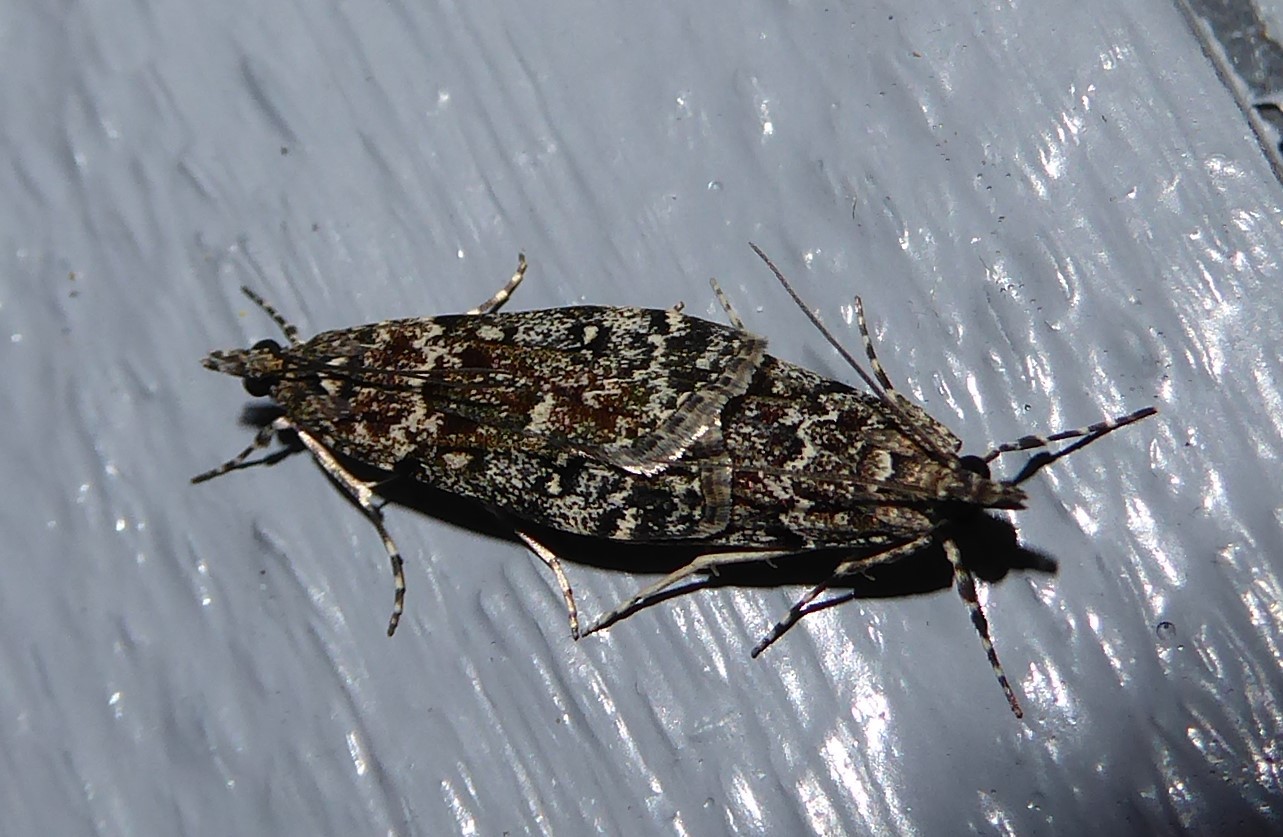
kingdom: Animalia
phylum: Arthropoda
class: Insecta
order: Lepidoptera
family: Crambidae
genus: Eudonia
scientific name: Eudonia philerga
